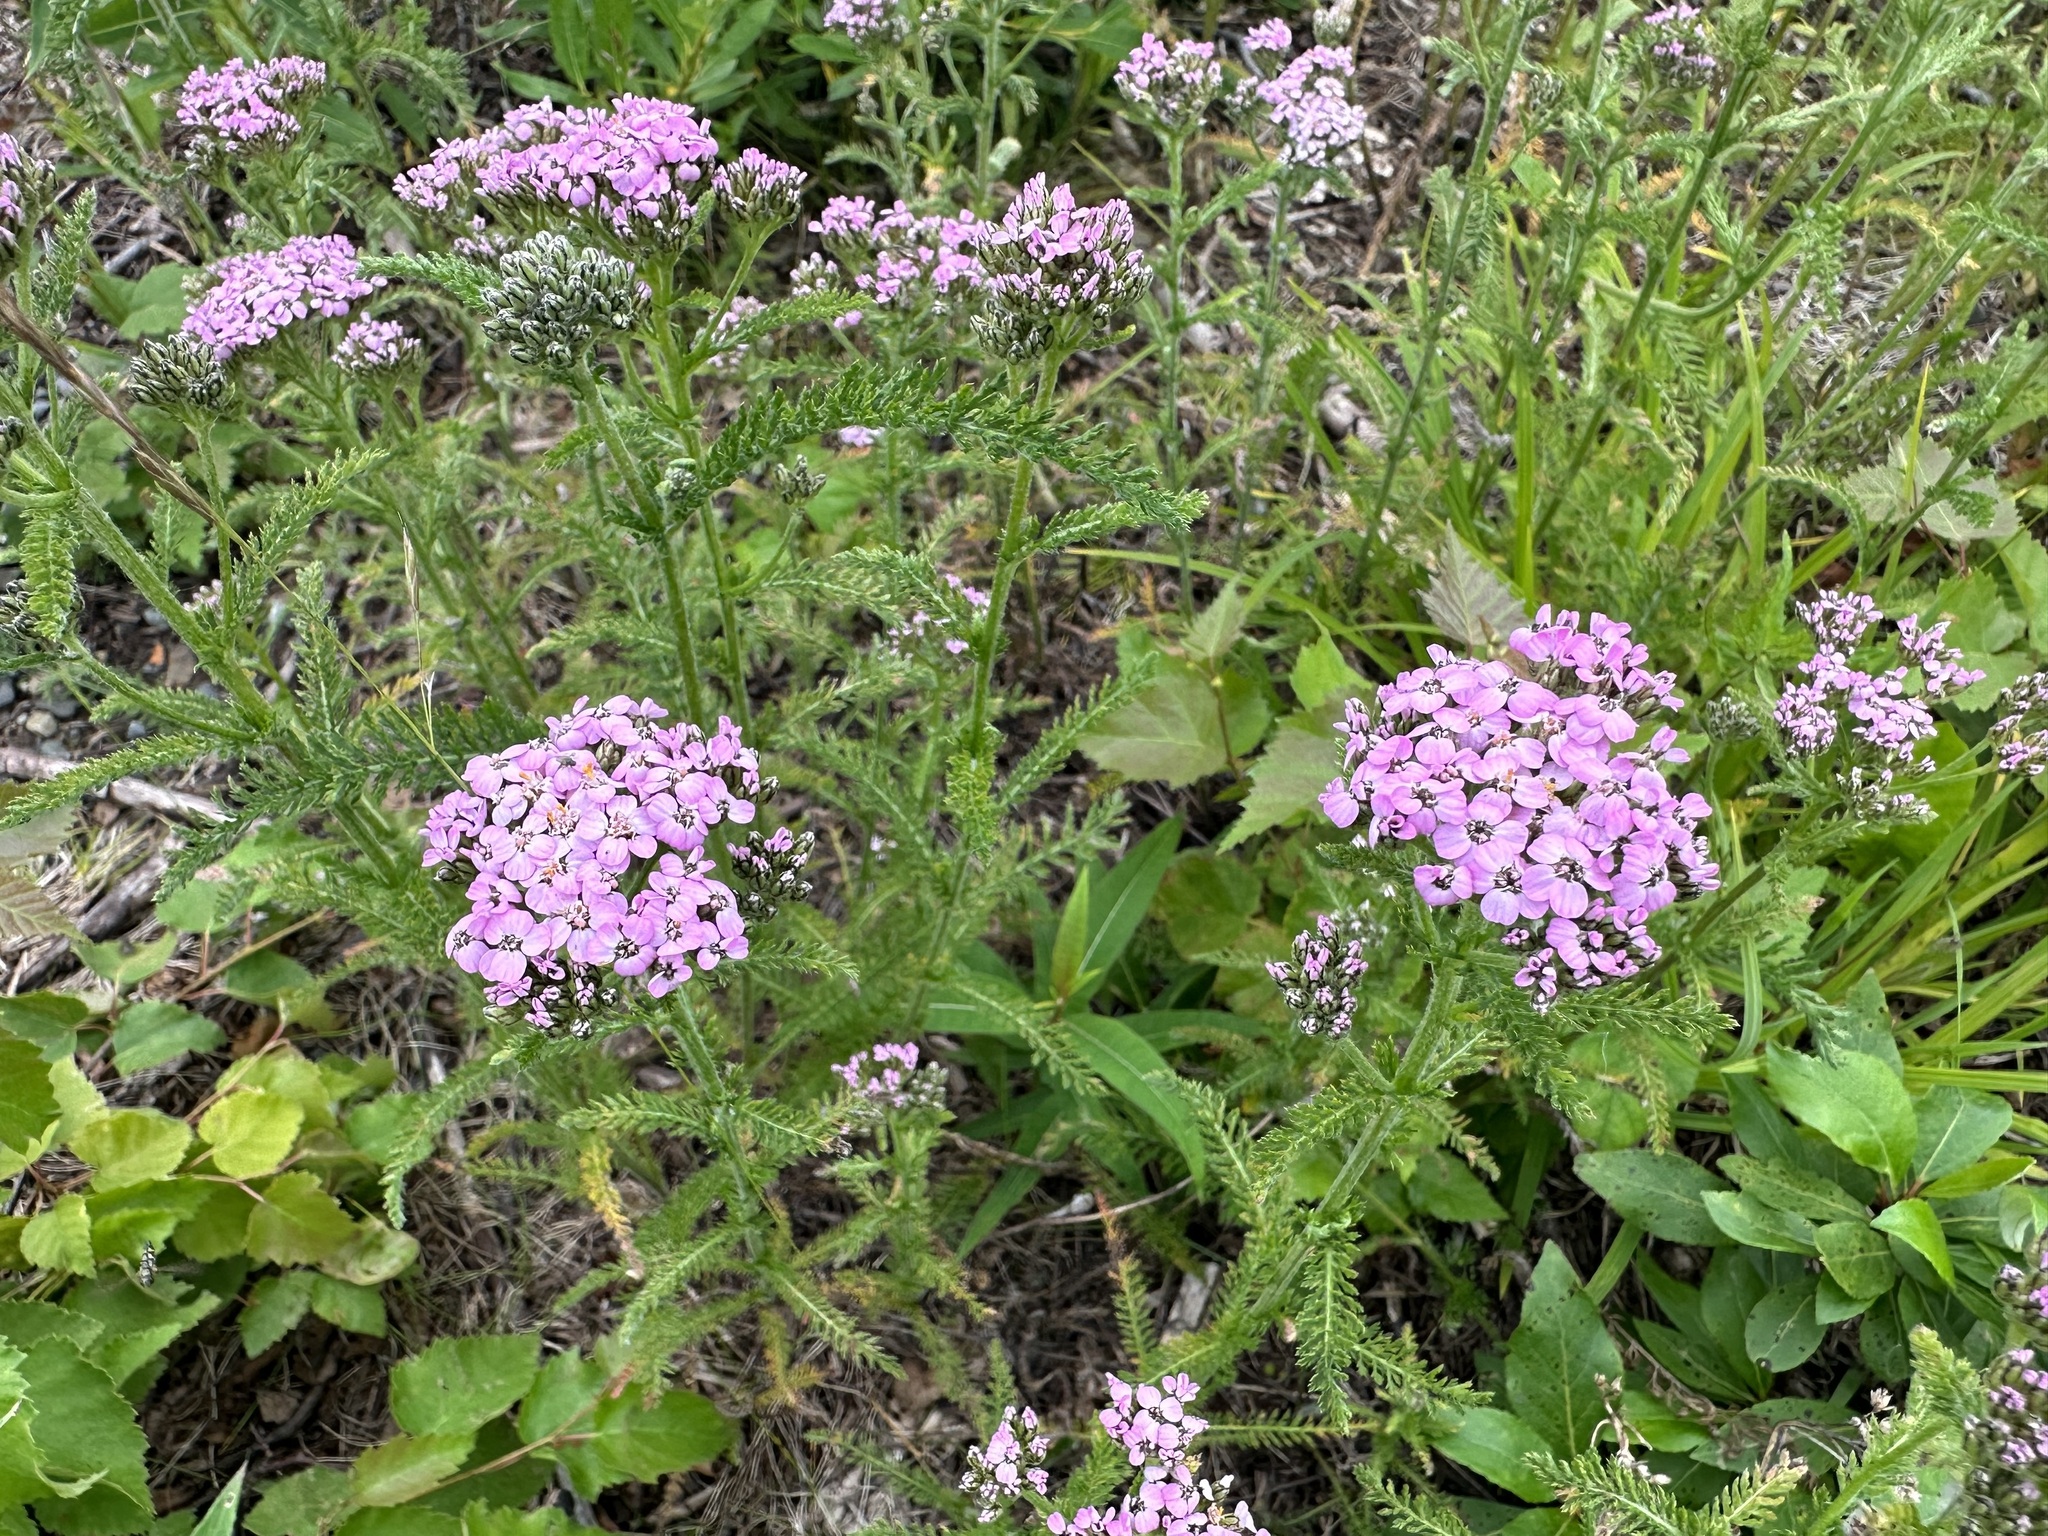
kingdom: Plantae
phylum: Tracheophyta
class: Magnoliopsida
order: Asterales
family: Asteraceae
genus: Achillea
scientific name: Achillea millefolium
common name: Yarrow
